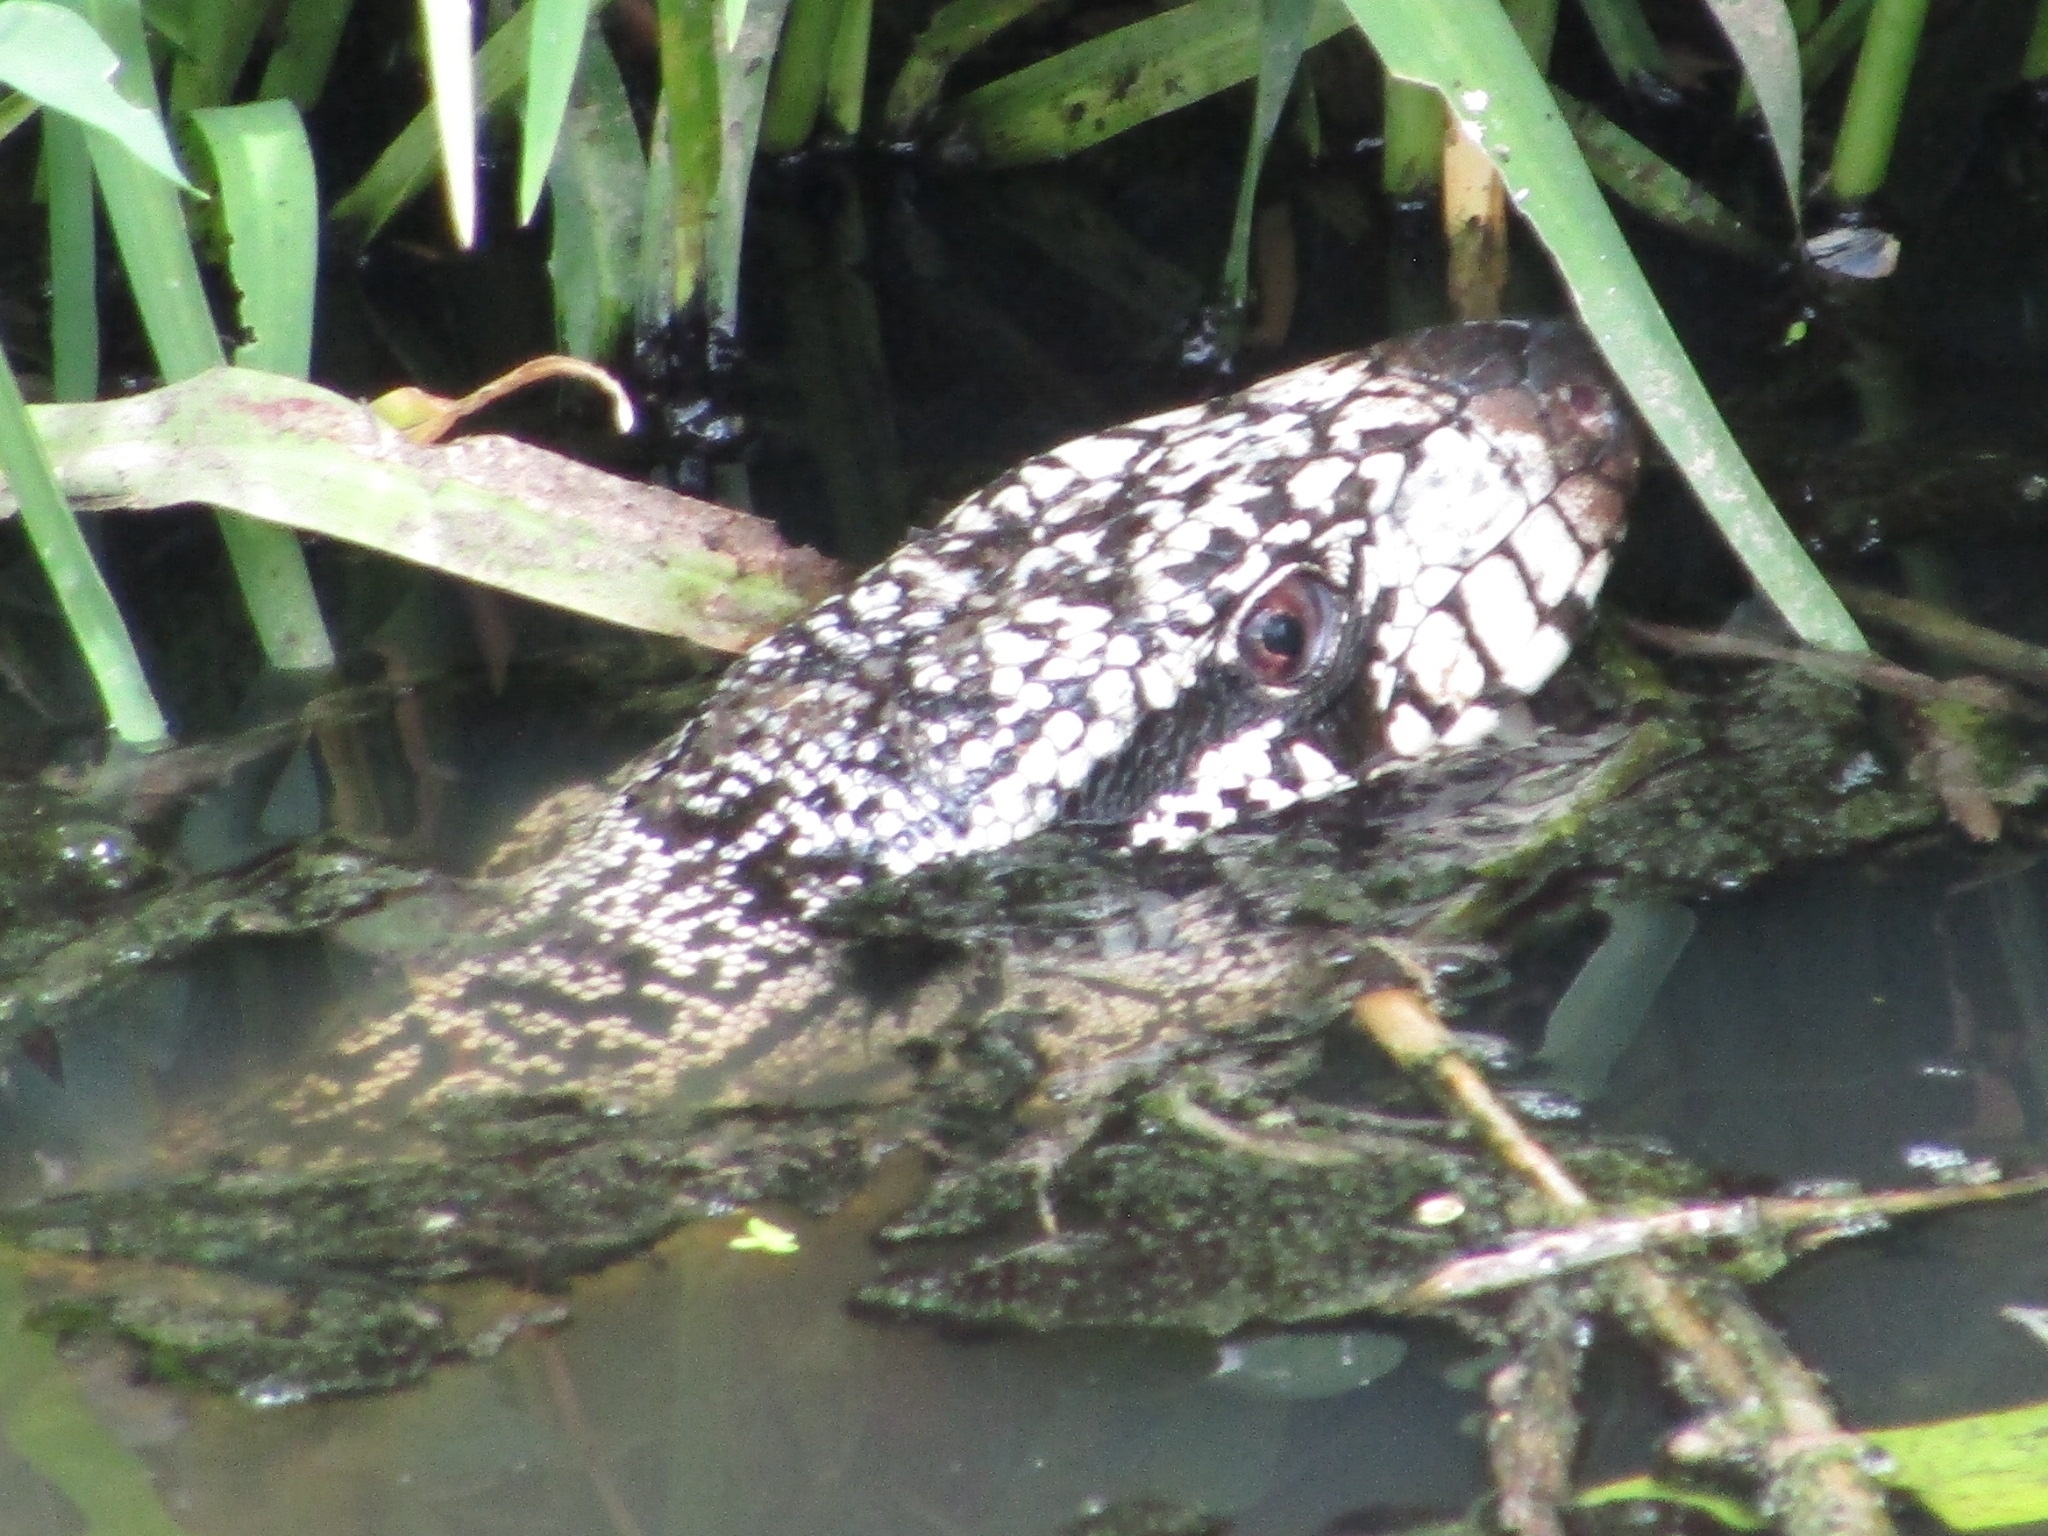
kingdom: Animalia
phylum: Chordata
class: Squamata
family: Teiidae
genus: Salvator
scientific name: Salvator merianae
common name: Argentine black and white tegu
